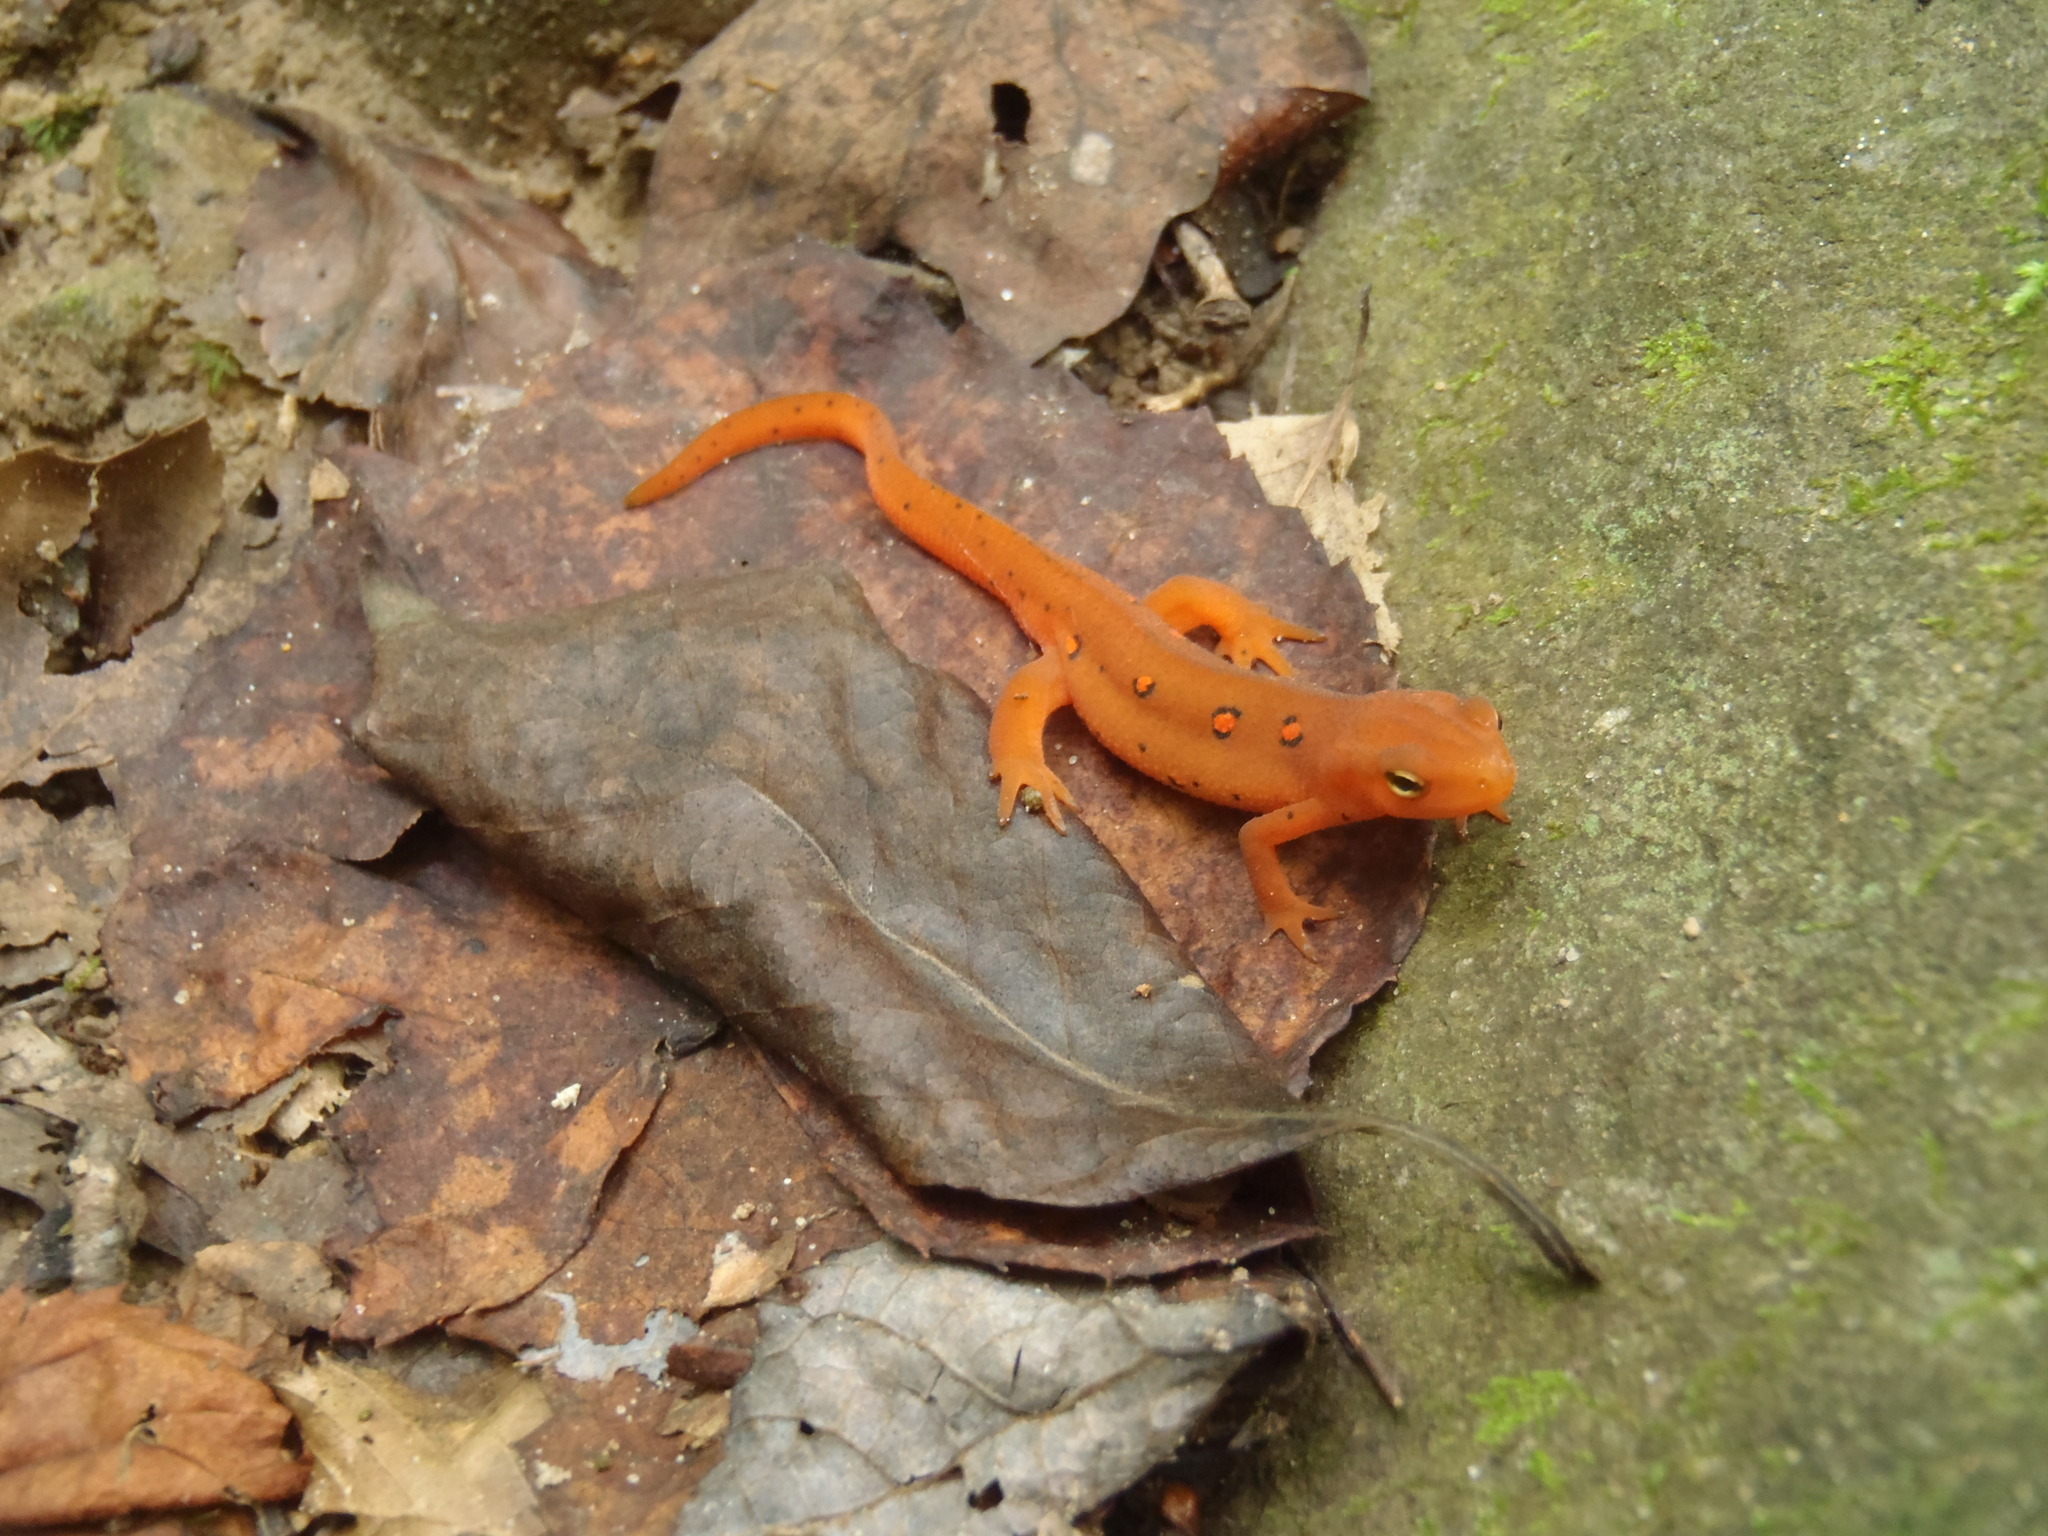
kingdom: Animalia
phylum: Chordata
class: Amphibia
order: Caudata
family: Salamandridae
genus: Notophthalmus
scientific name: Notophthalmus viridescens
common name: Eastern newt
